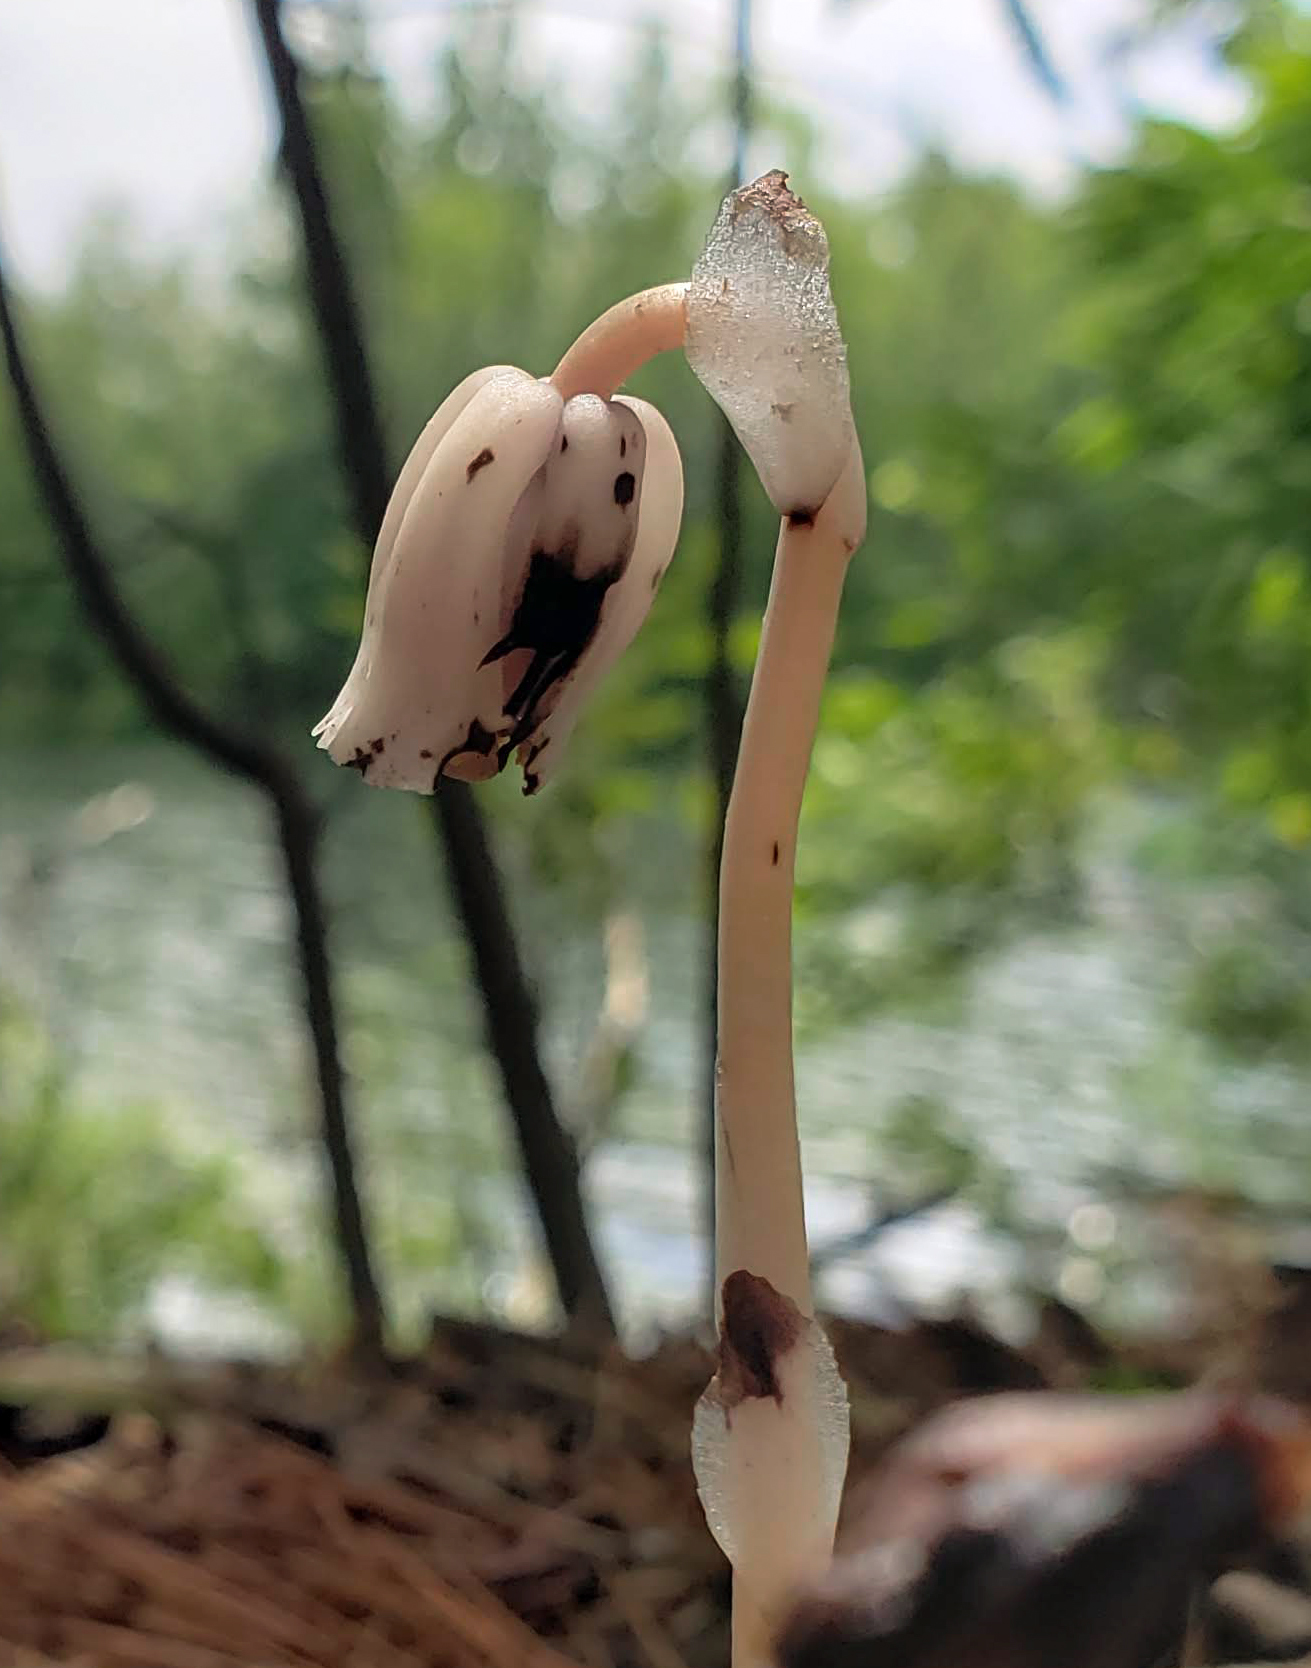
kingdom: Plantae
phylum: Tracheophyta
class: Magnoliopsida
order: Ericales
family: Ericaceae
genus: Monotropa
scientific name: Monotropa uniflora
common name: Convulsion root
